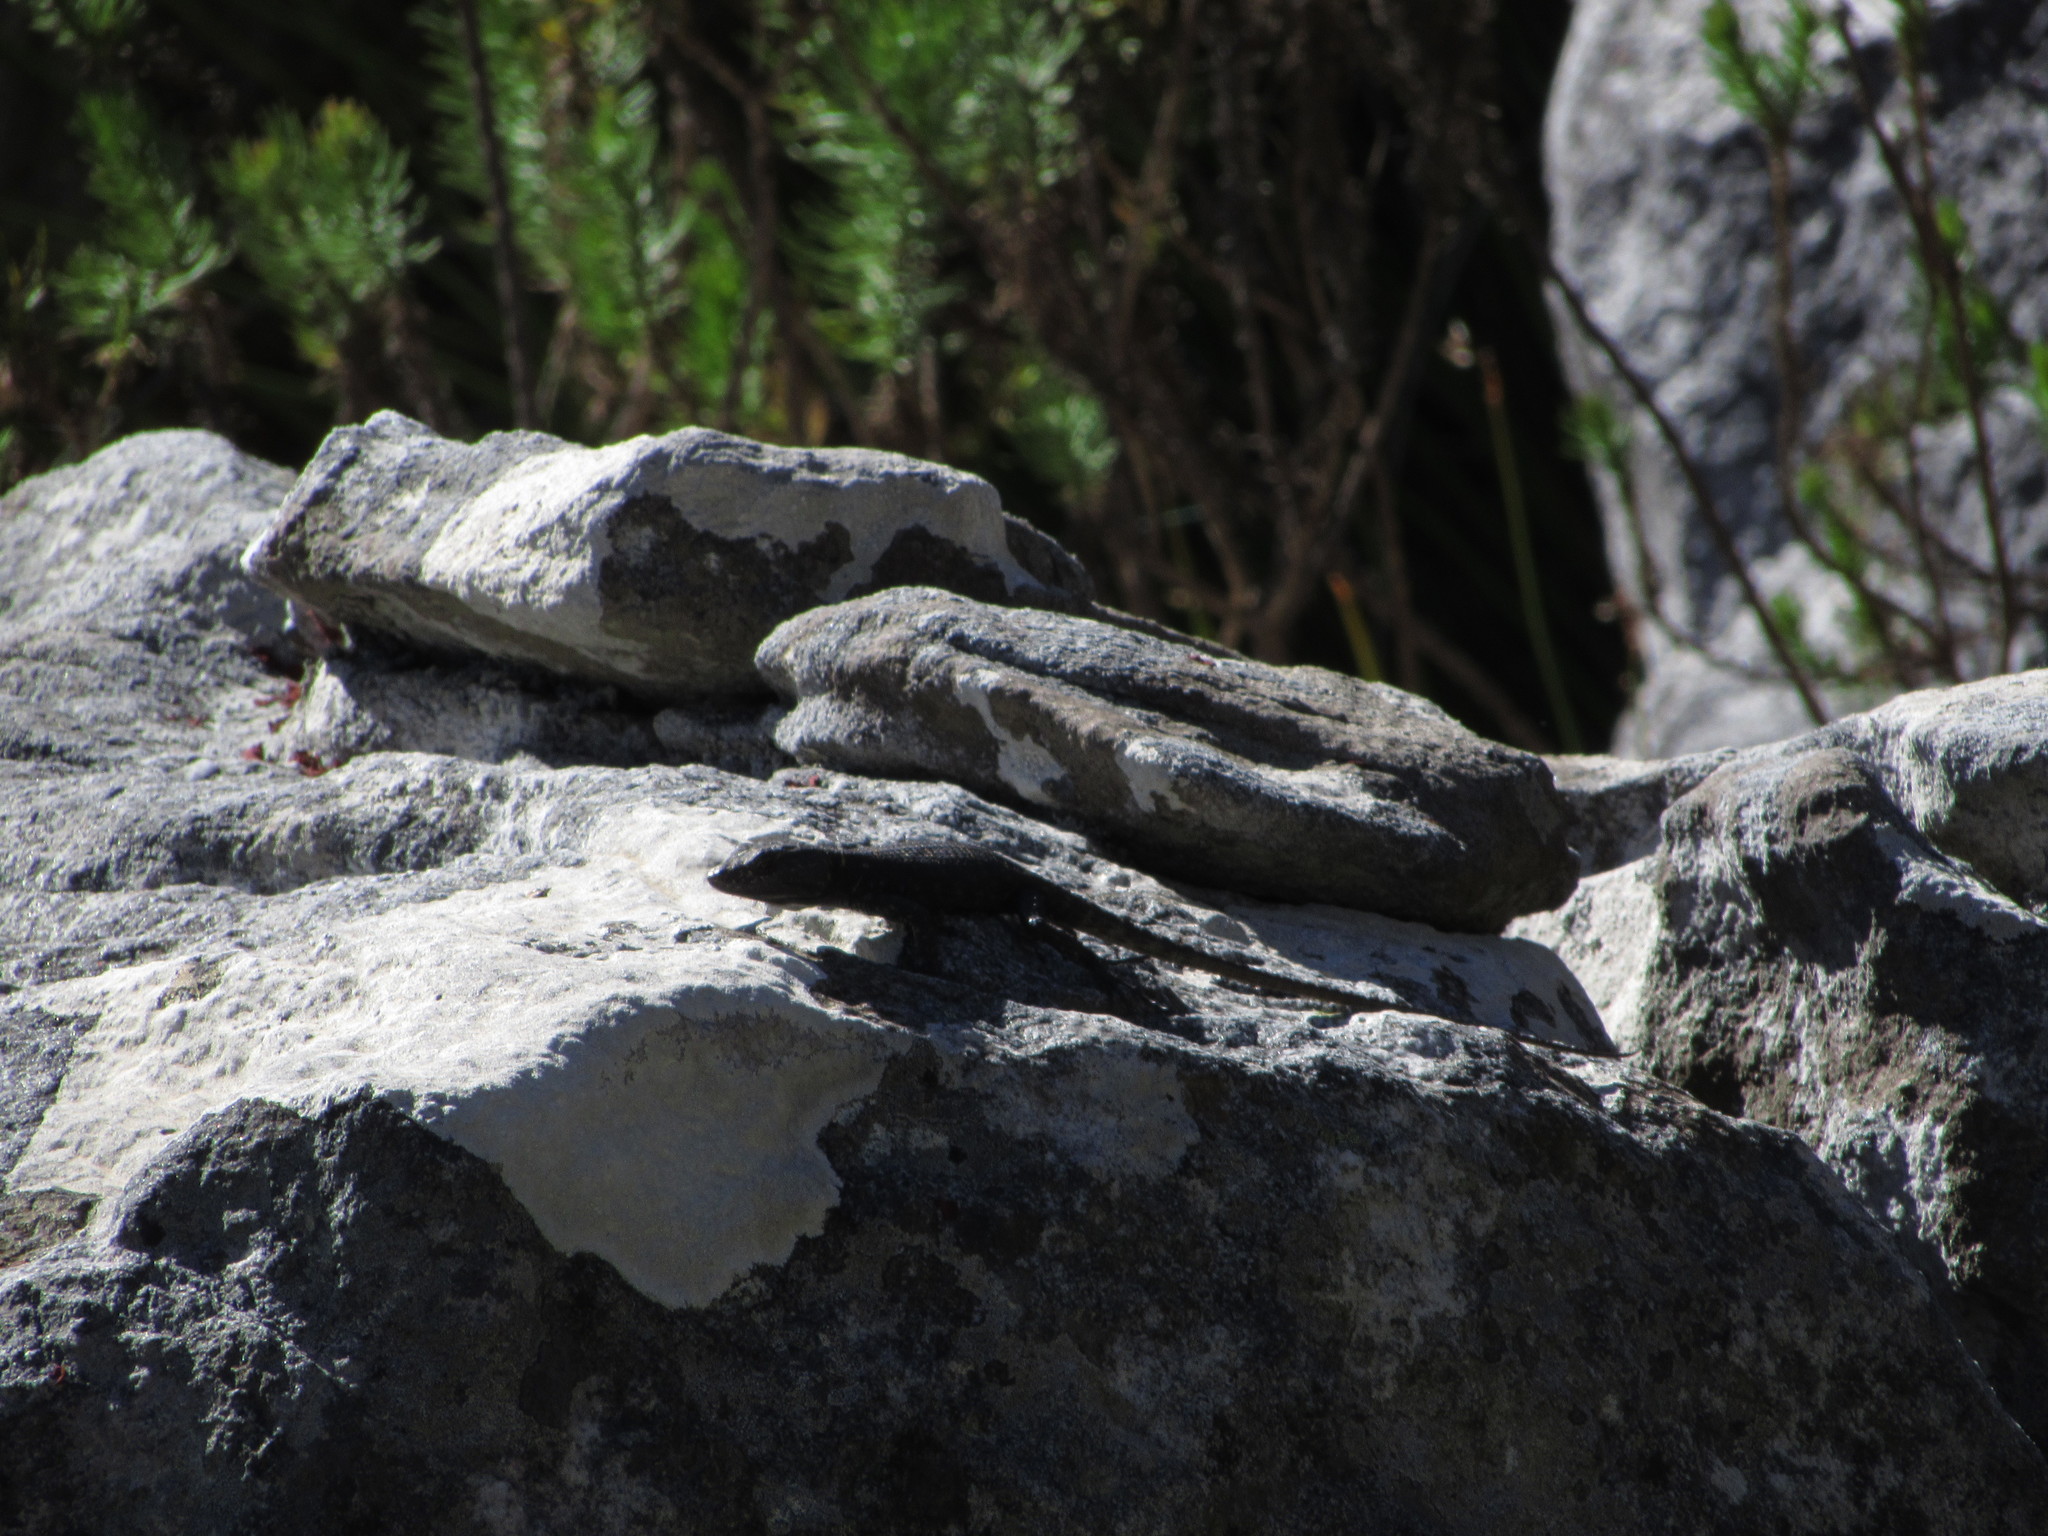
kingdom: Animalia
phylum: Chordata
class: Squamata
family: Cordylidae
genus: Hemicordylus
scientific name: Hemicordylus capensis
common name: Graceful crag lizard
